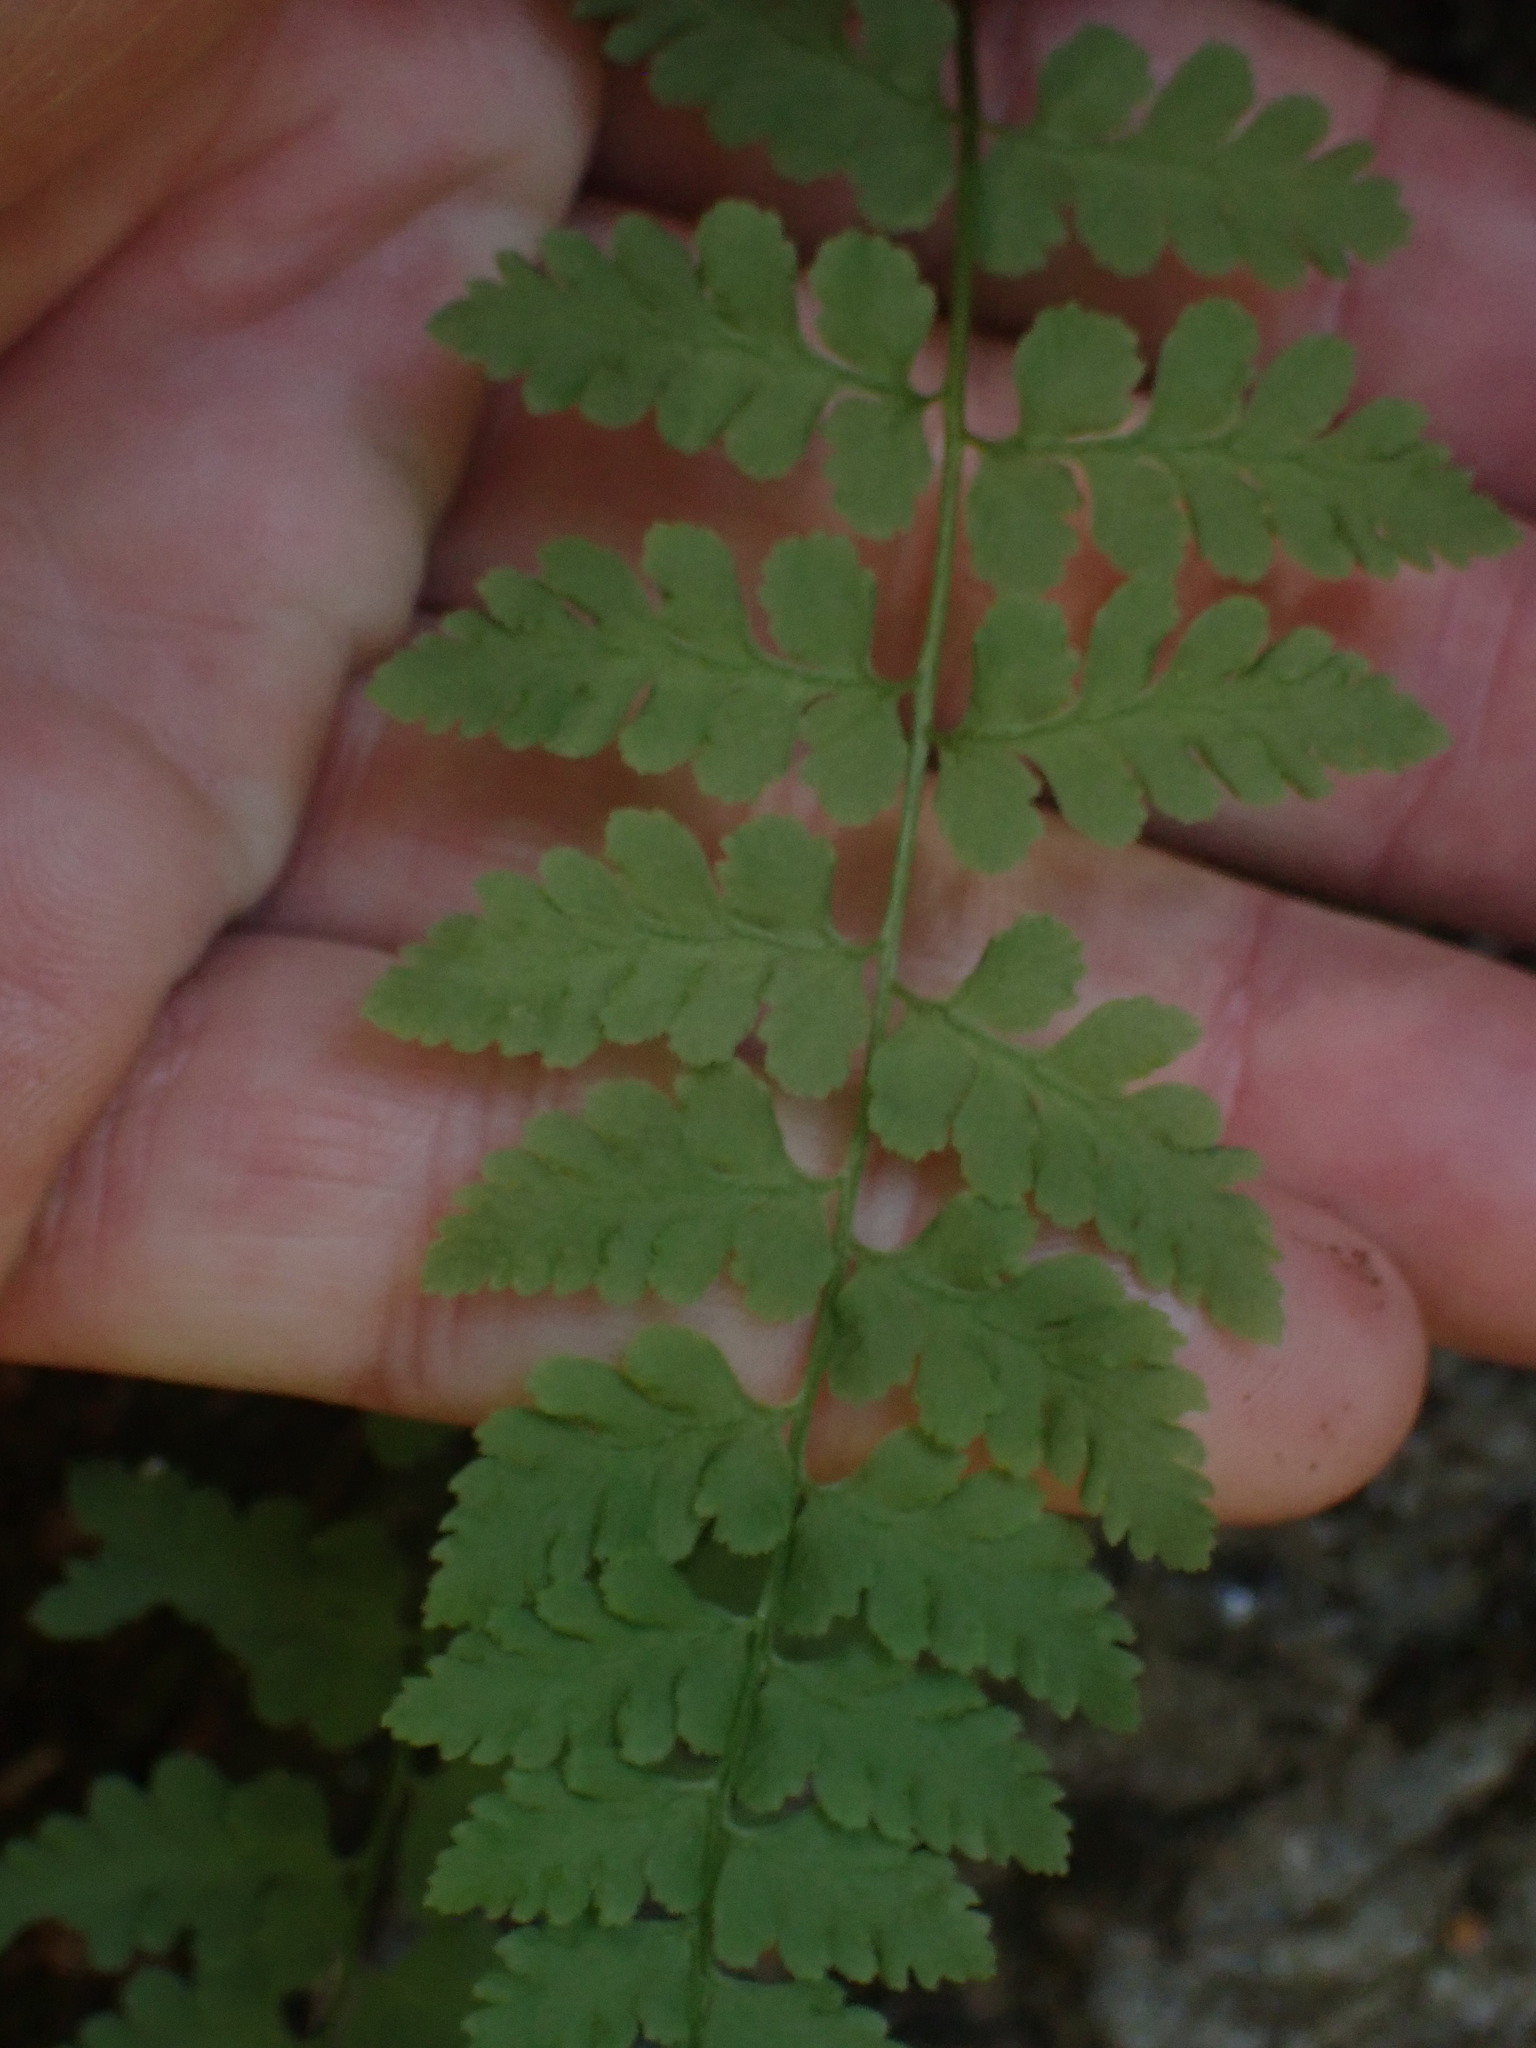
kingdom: Plantae
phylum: Tracheophyta
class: Polypodiopsida
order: Polypodiales
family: Cystopteridaceae
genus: Cystopteris
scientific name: Cystopteris fragilis
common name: Brittle bladder fern
